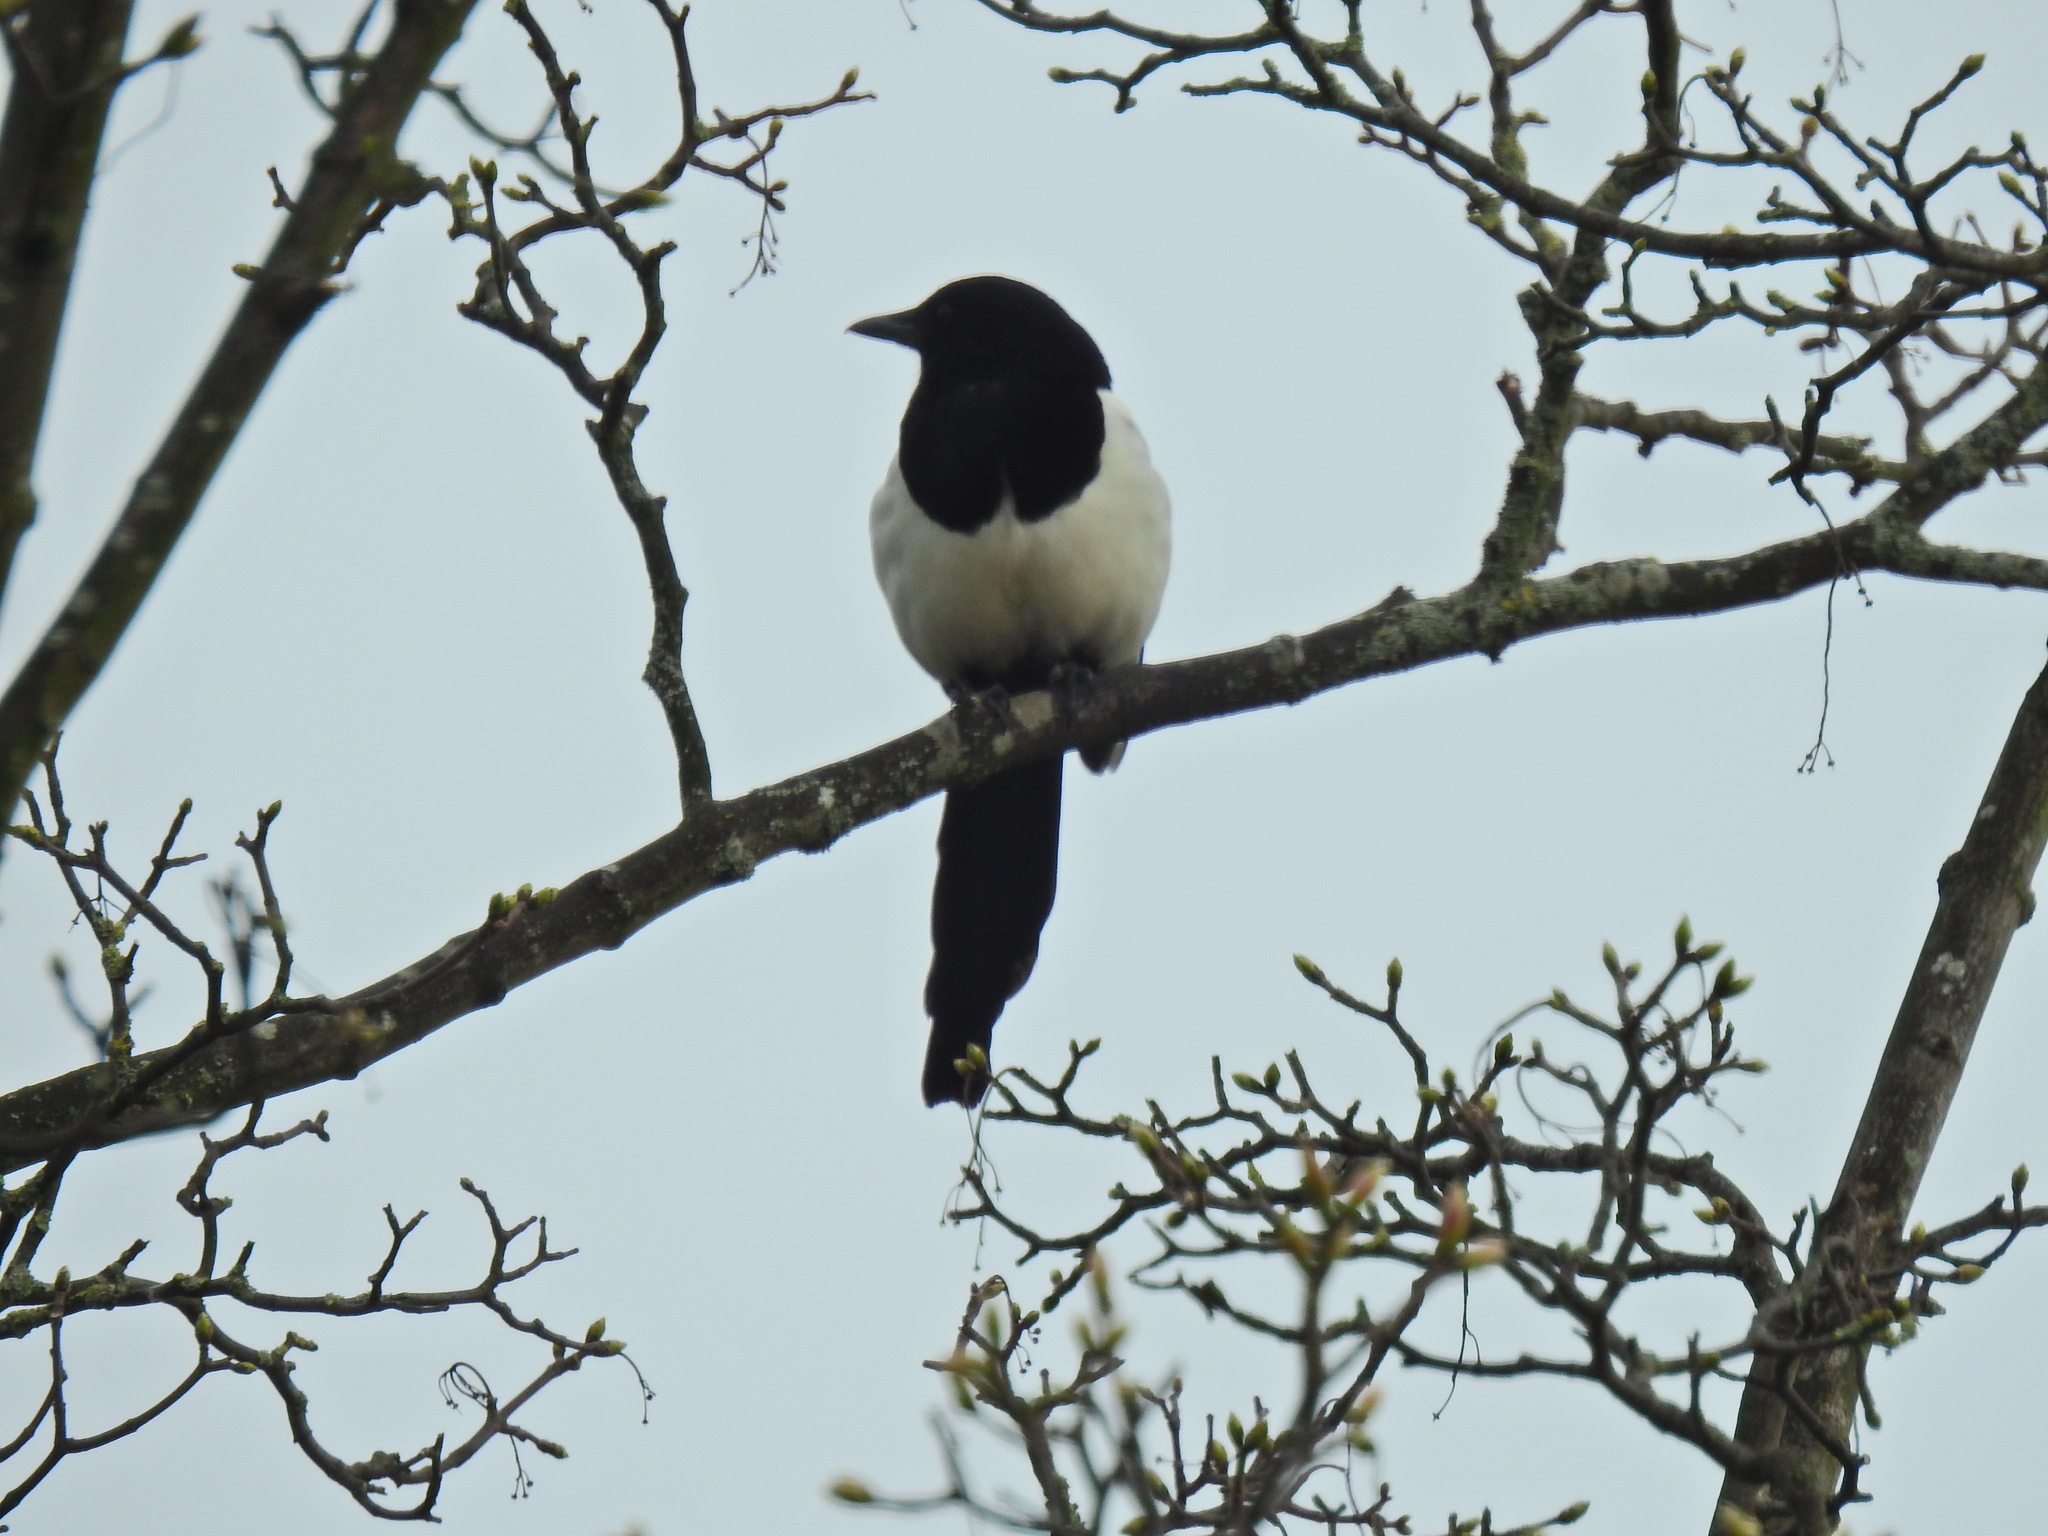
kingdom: Animalia
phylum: Chordata
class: Aves
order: Passeriformes
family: Corvidae
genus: Pica
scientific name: Pica pica
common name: Eurasian magpie
